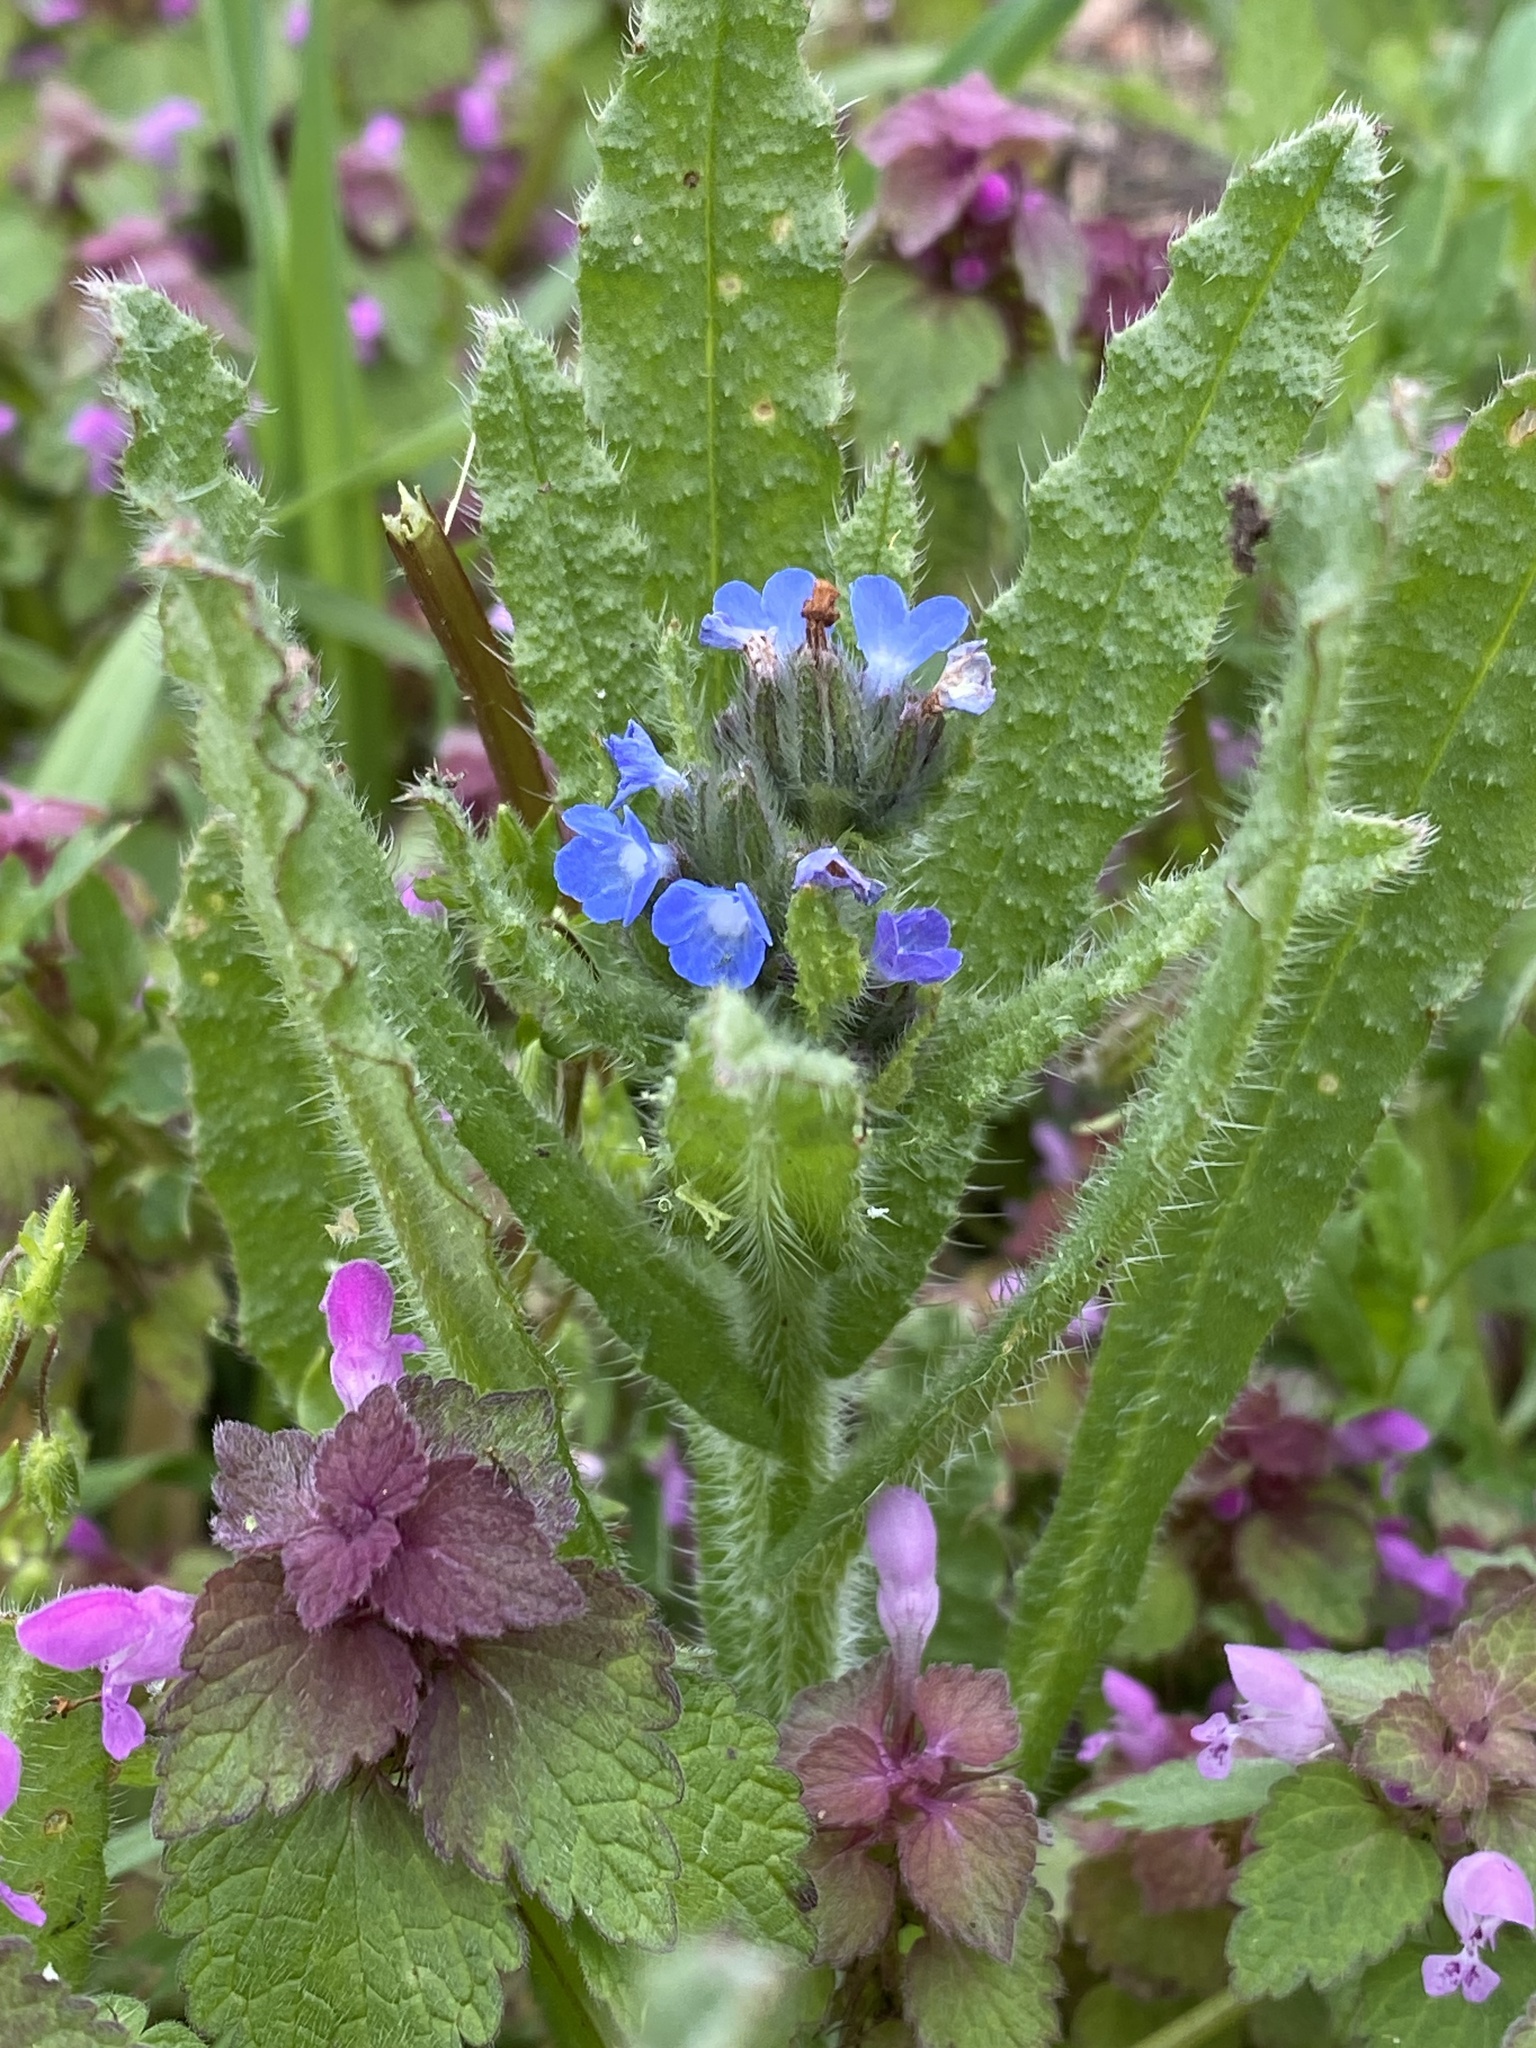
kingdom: Plantae
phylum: Tracheophyta
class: Magnoliopsida
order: Boraginales
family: Boraginaceae
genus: Lycopsis
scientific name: Lycopsis arvensis
